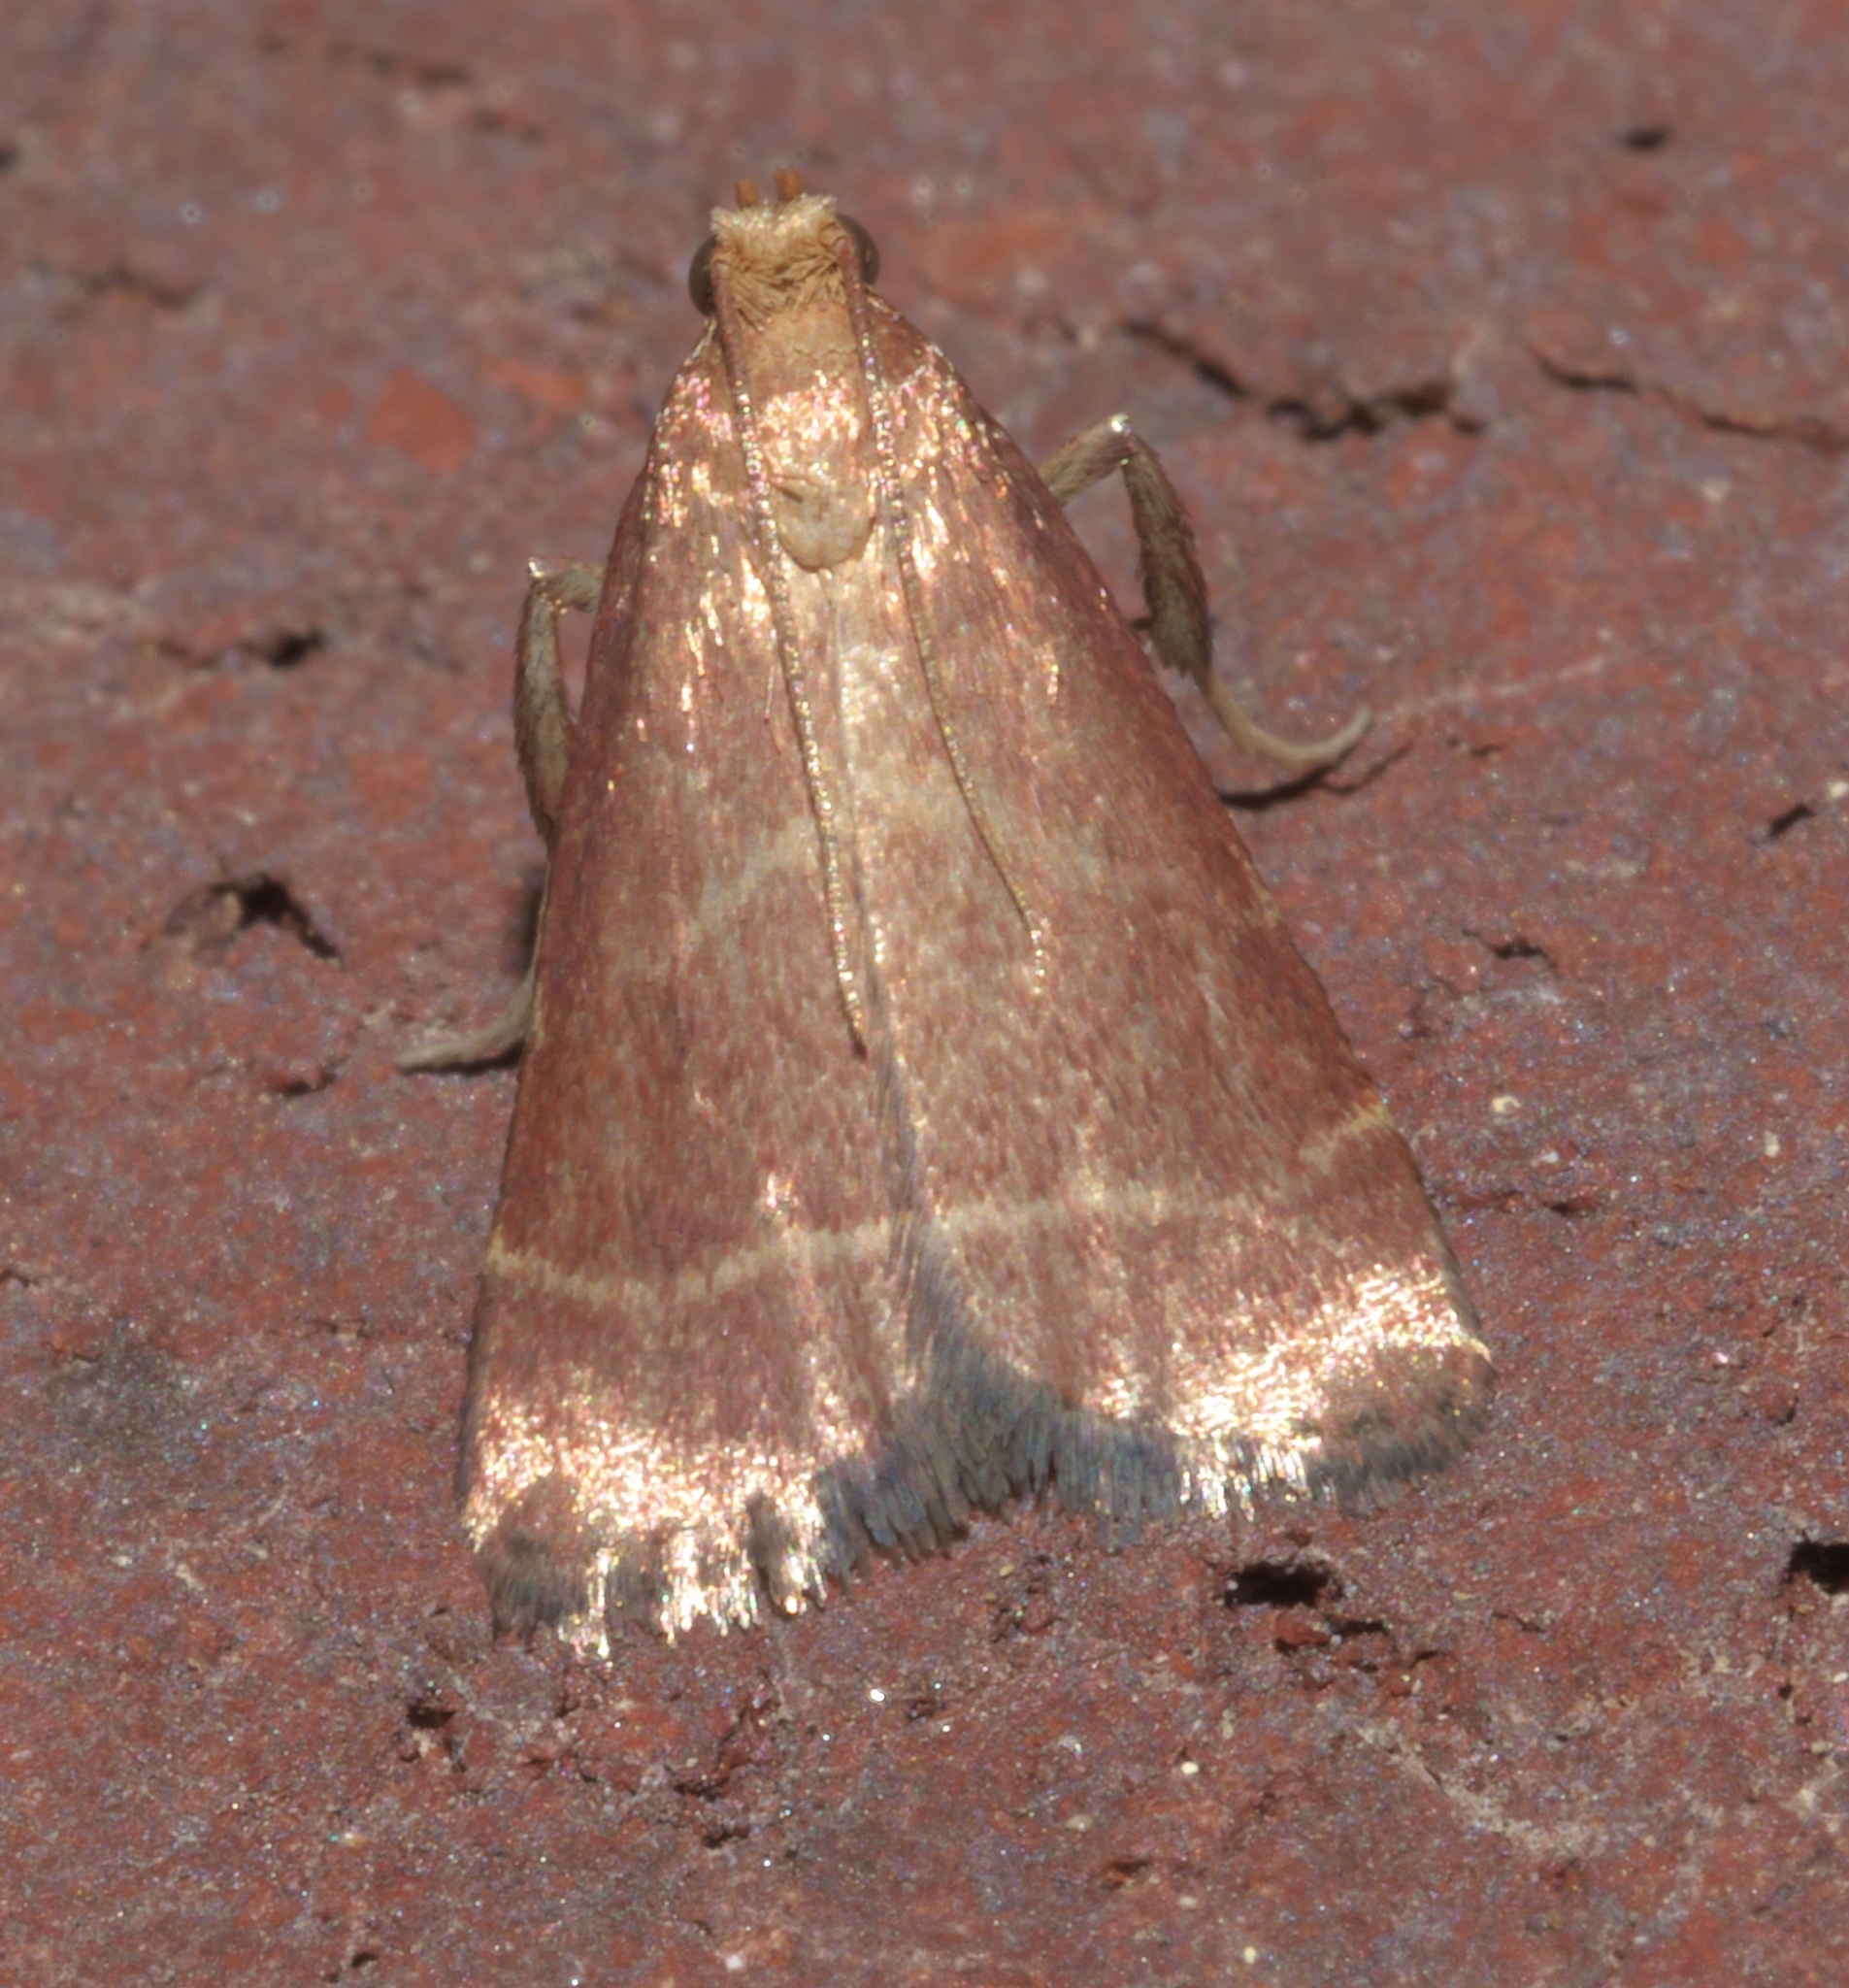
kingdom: Animalia
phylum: Arthropoda
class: Insecta
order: Lepidoptera
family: Pyralidae
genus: Arta
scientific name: Arta statalis
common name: Posturing arta moth
